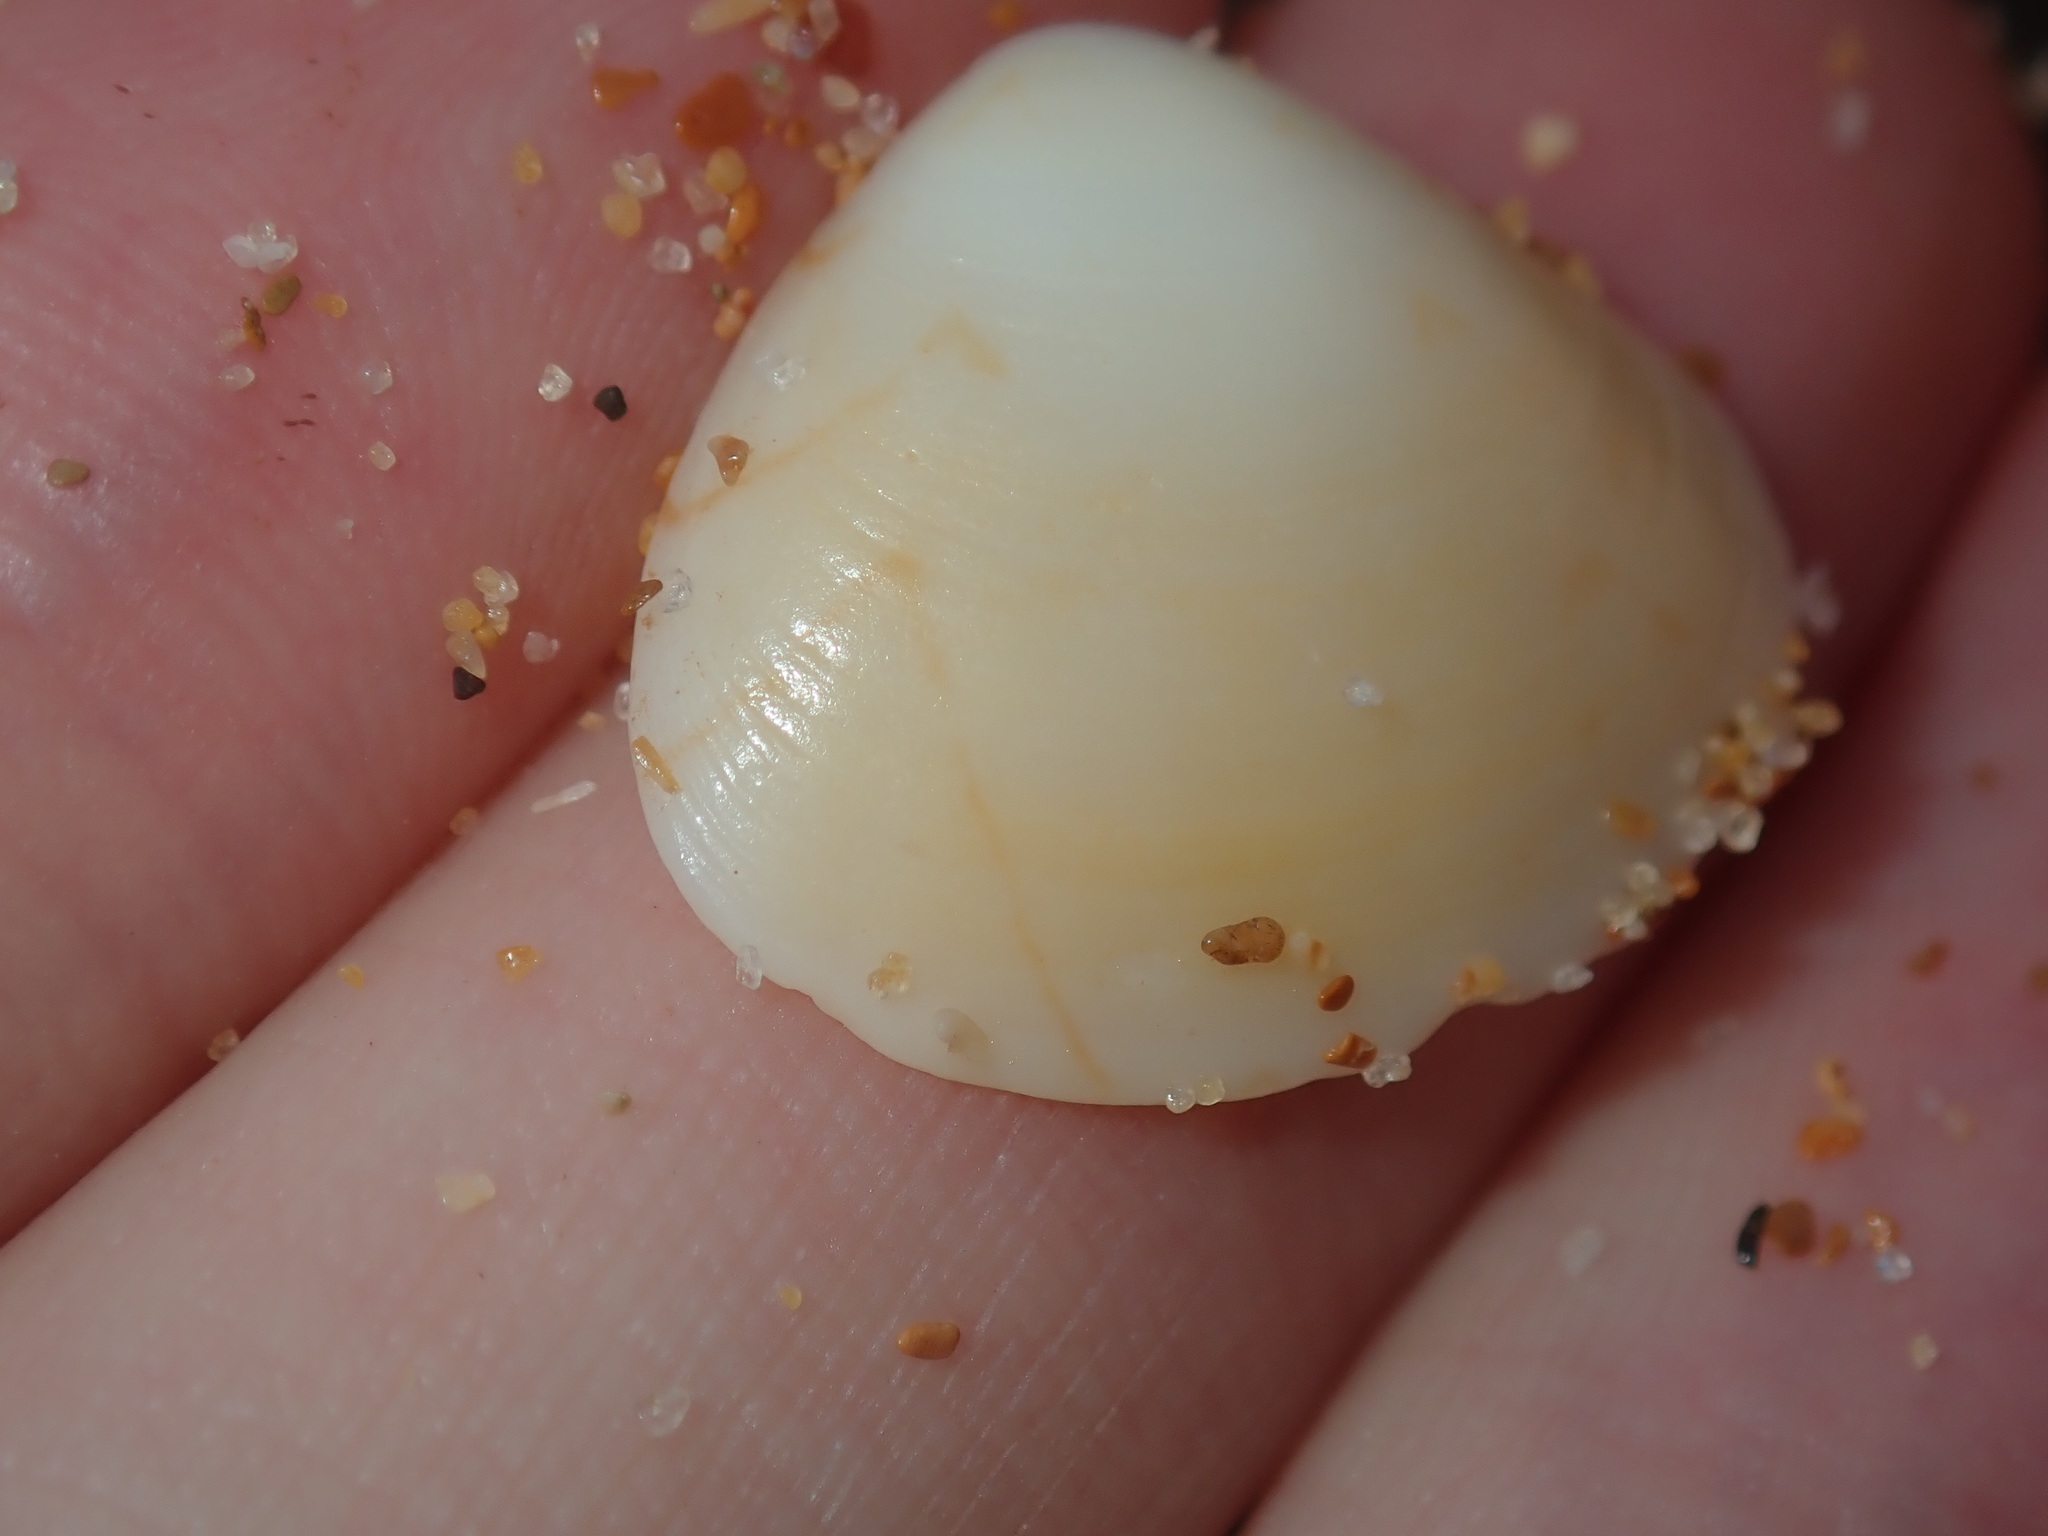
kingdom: Animalia
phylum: Mollusca
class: Bivalvia
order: Venerida
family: Veneridae
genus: Gomphina
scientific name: Gomphina undulosa
